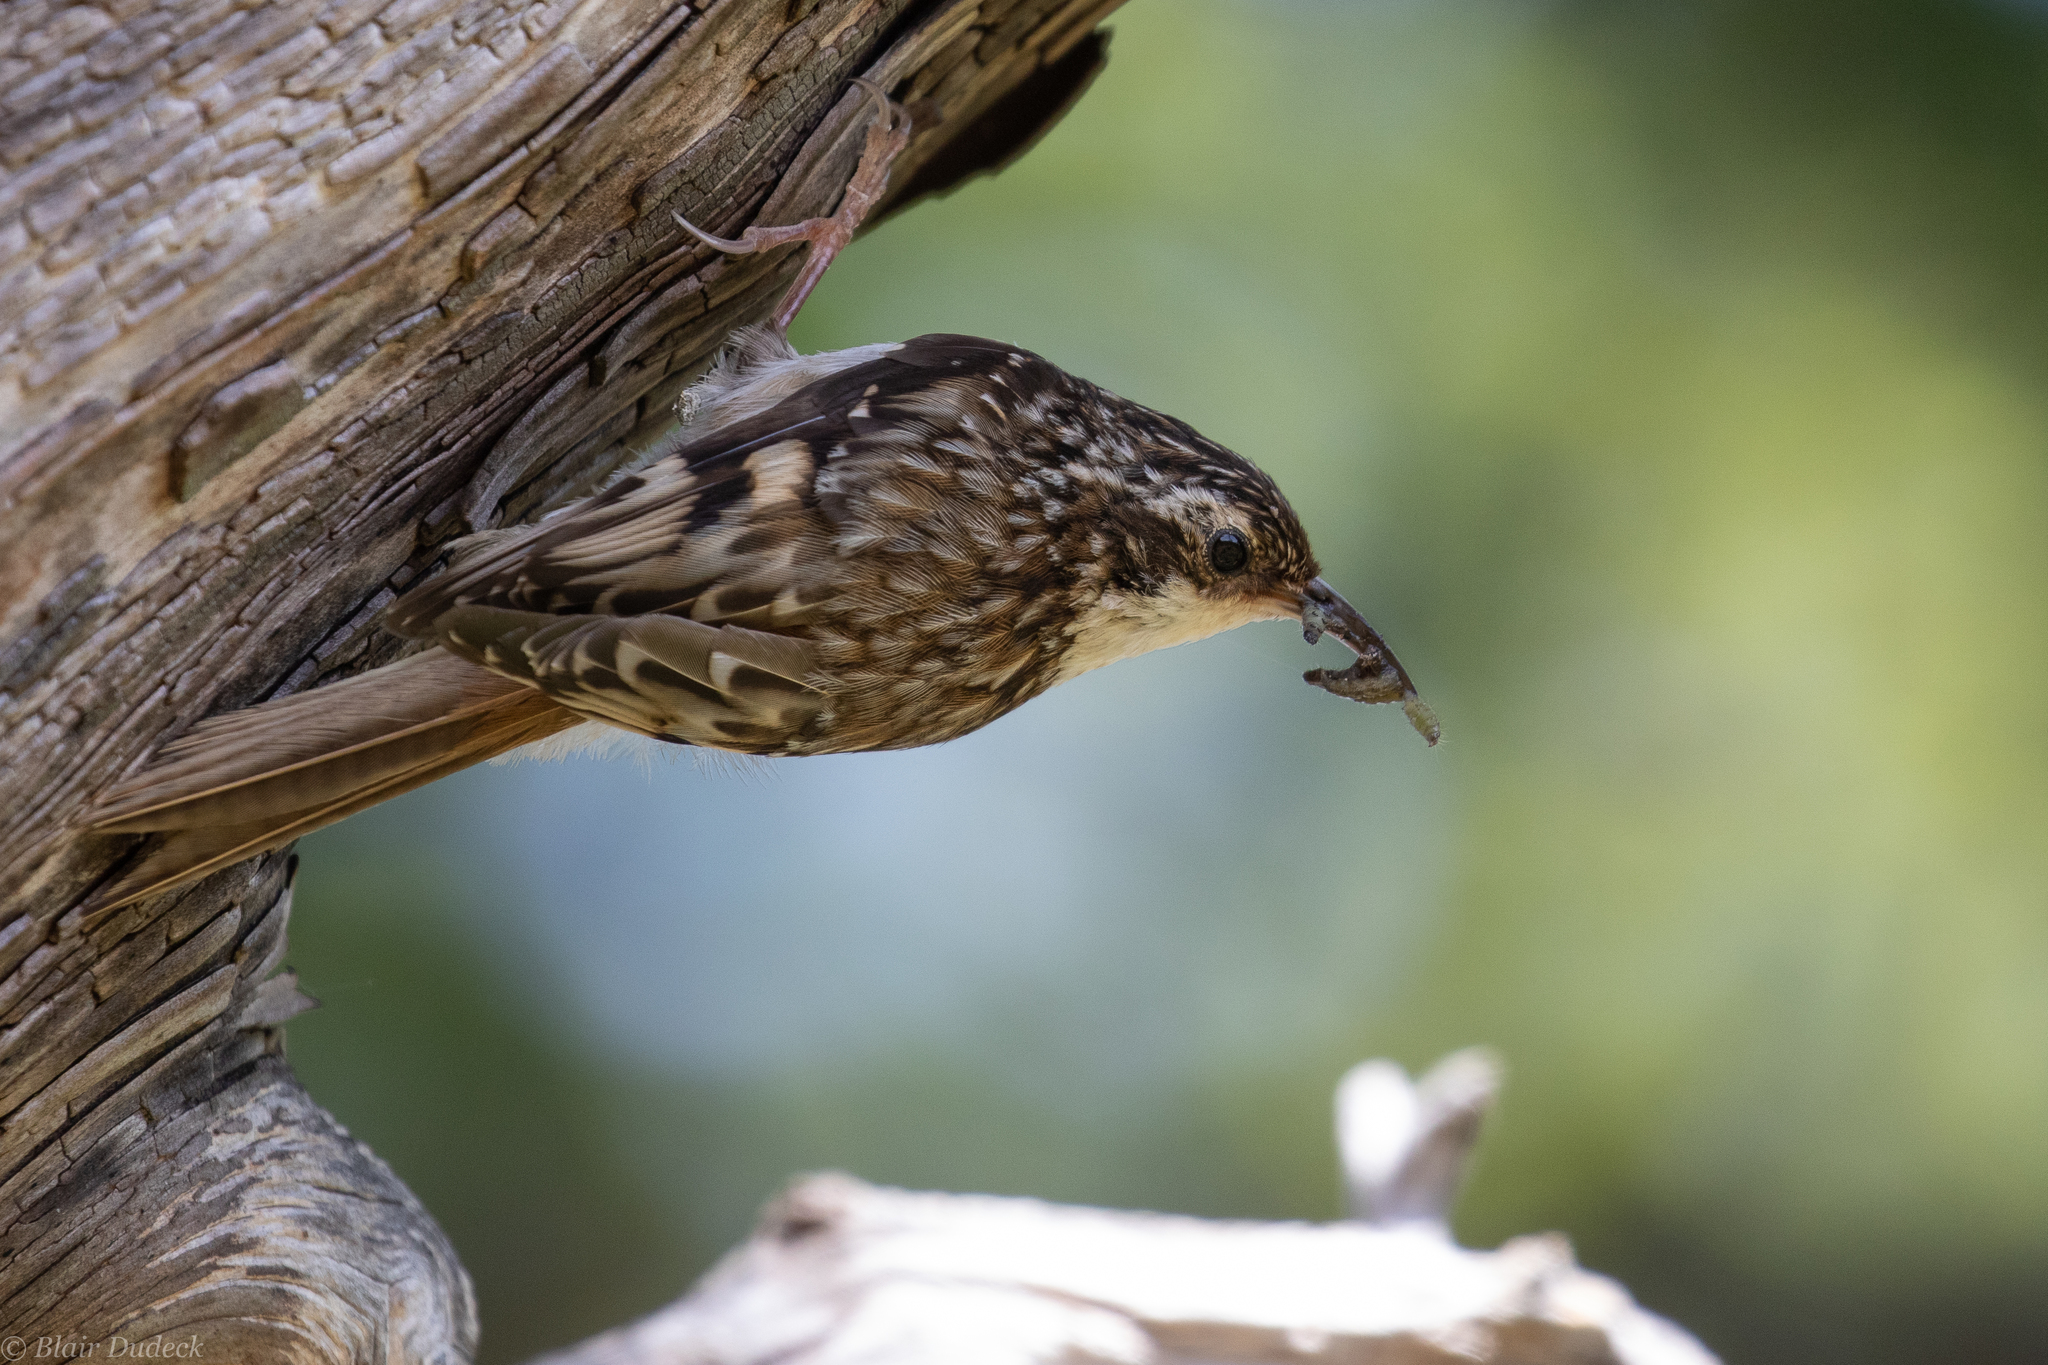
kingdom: Animalia
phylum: Chordata
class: Aves
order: Passeriformes
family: Certhiidae
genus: Certhia
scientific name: Certhia americana
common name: Brown creeper
